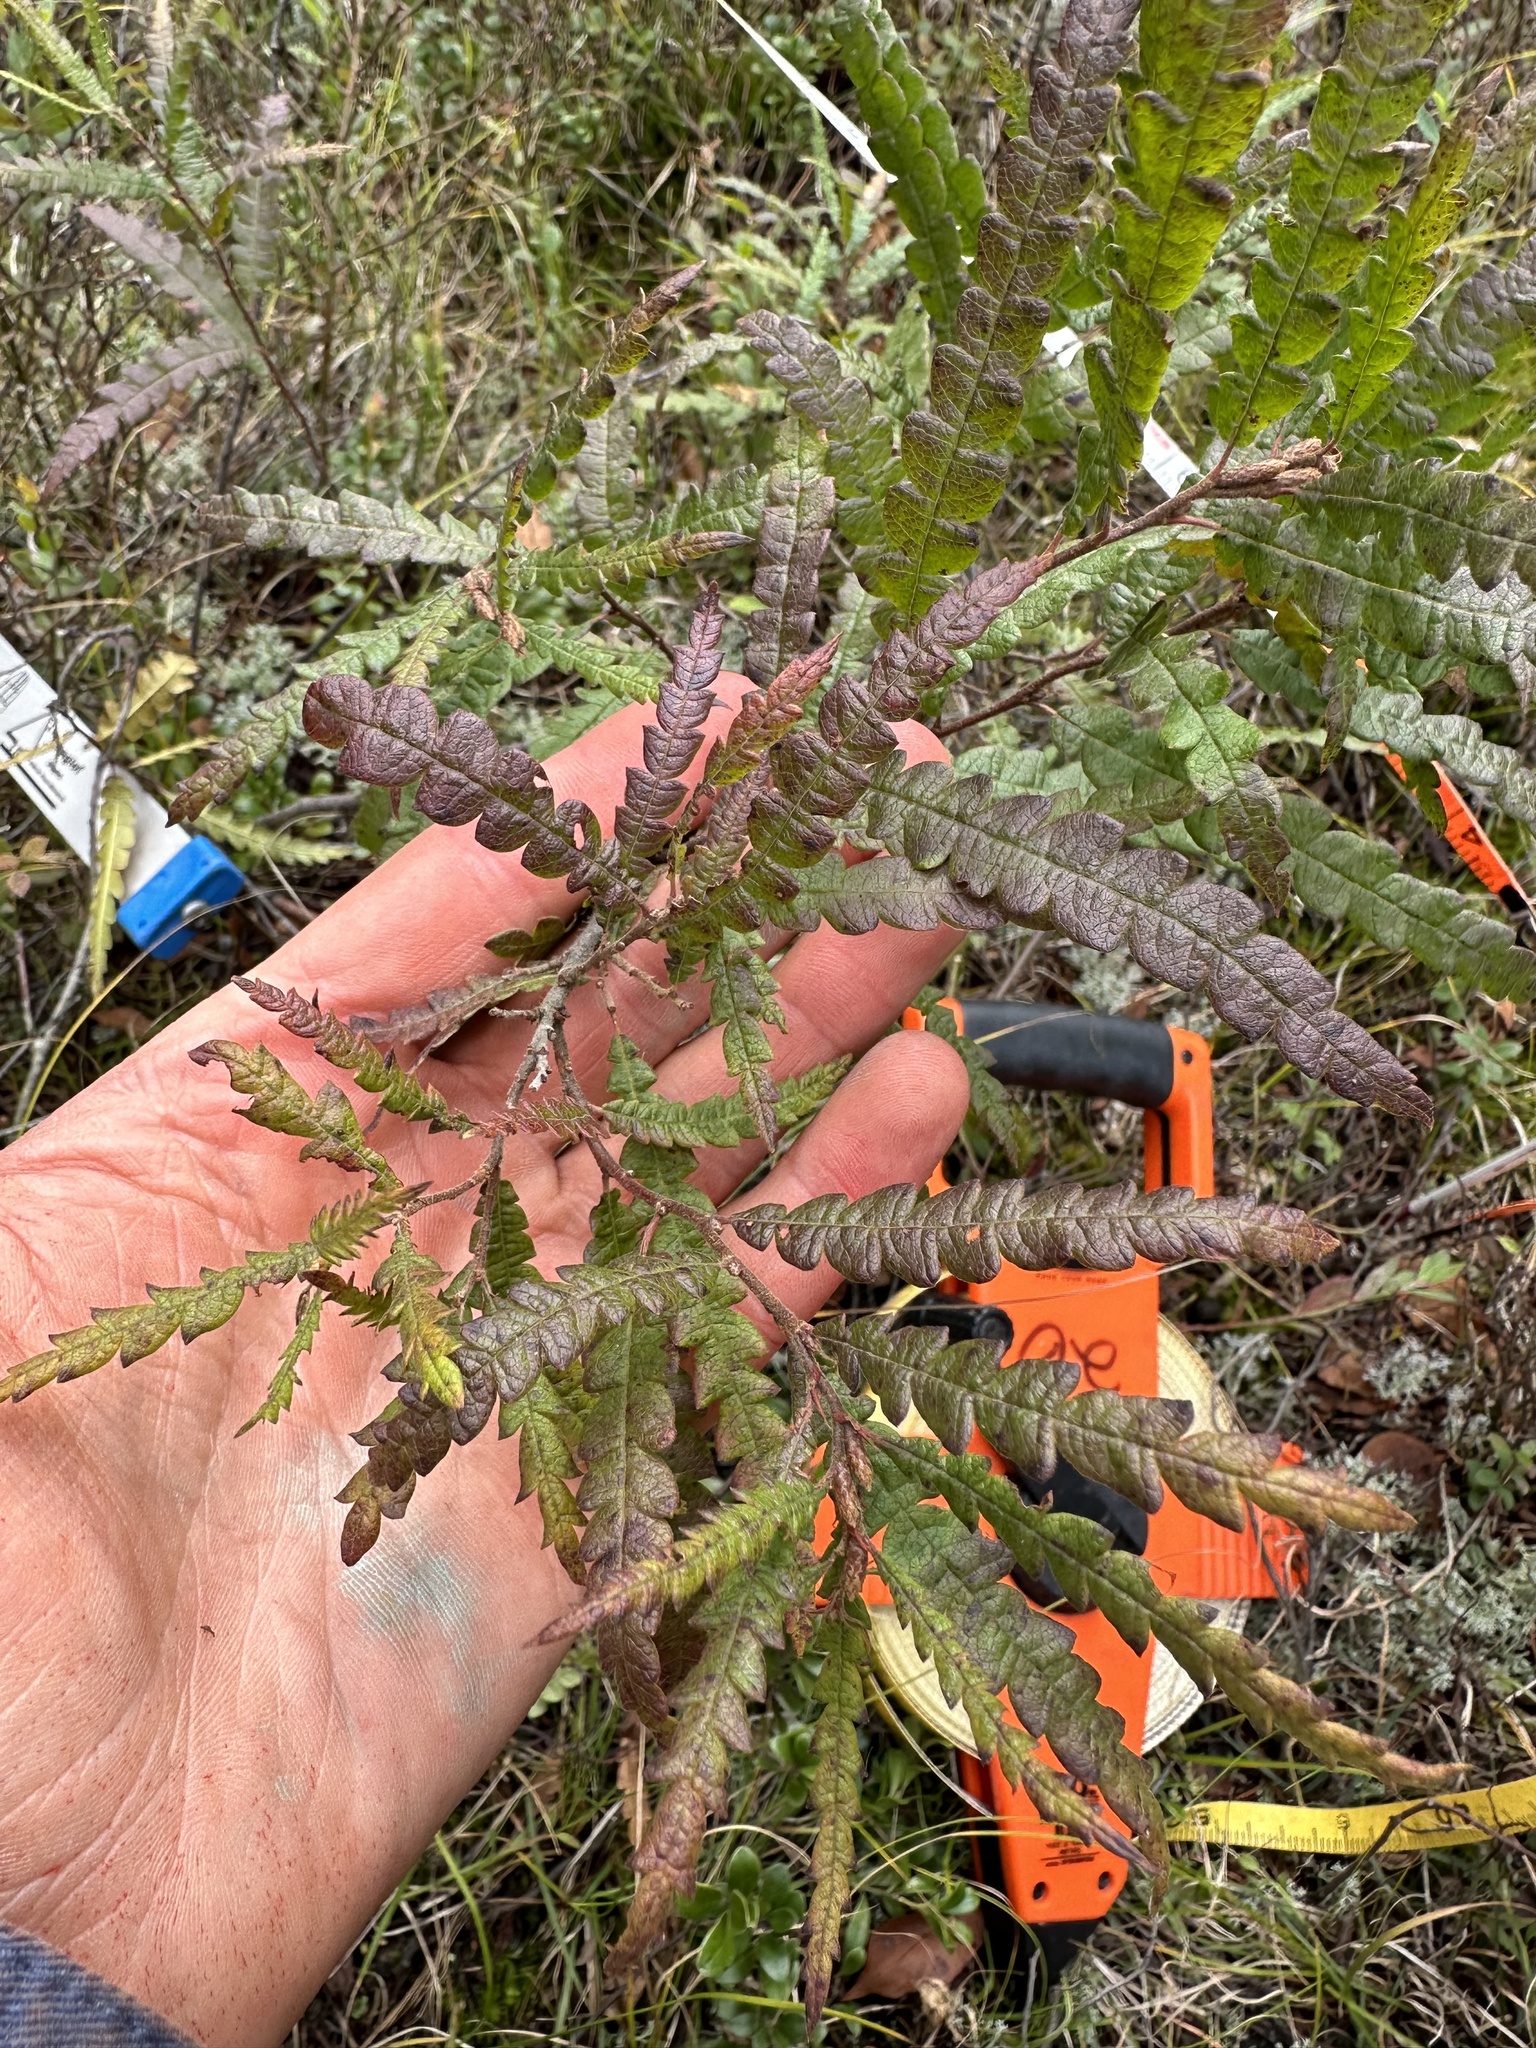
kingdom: Plantae
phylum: Tracheophyta
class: Magnoliopsida
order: Fagales
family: Myricaceae
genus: Comptonia
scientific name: Comptonia peregrina
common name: Sweet-fern
